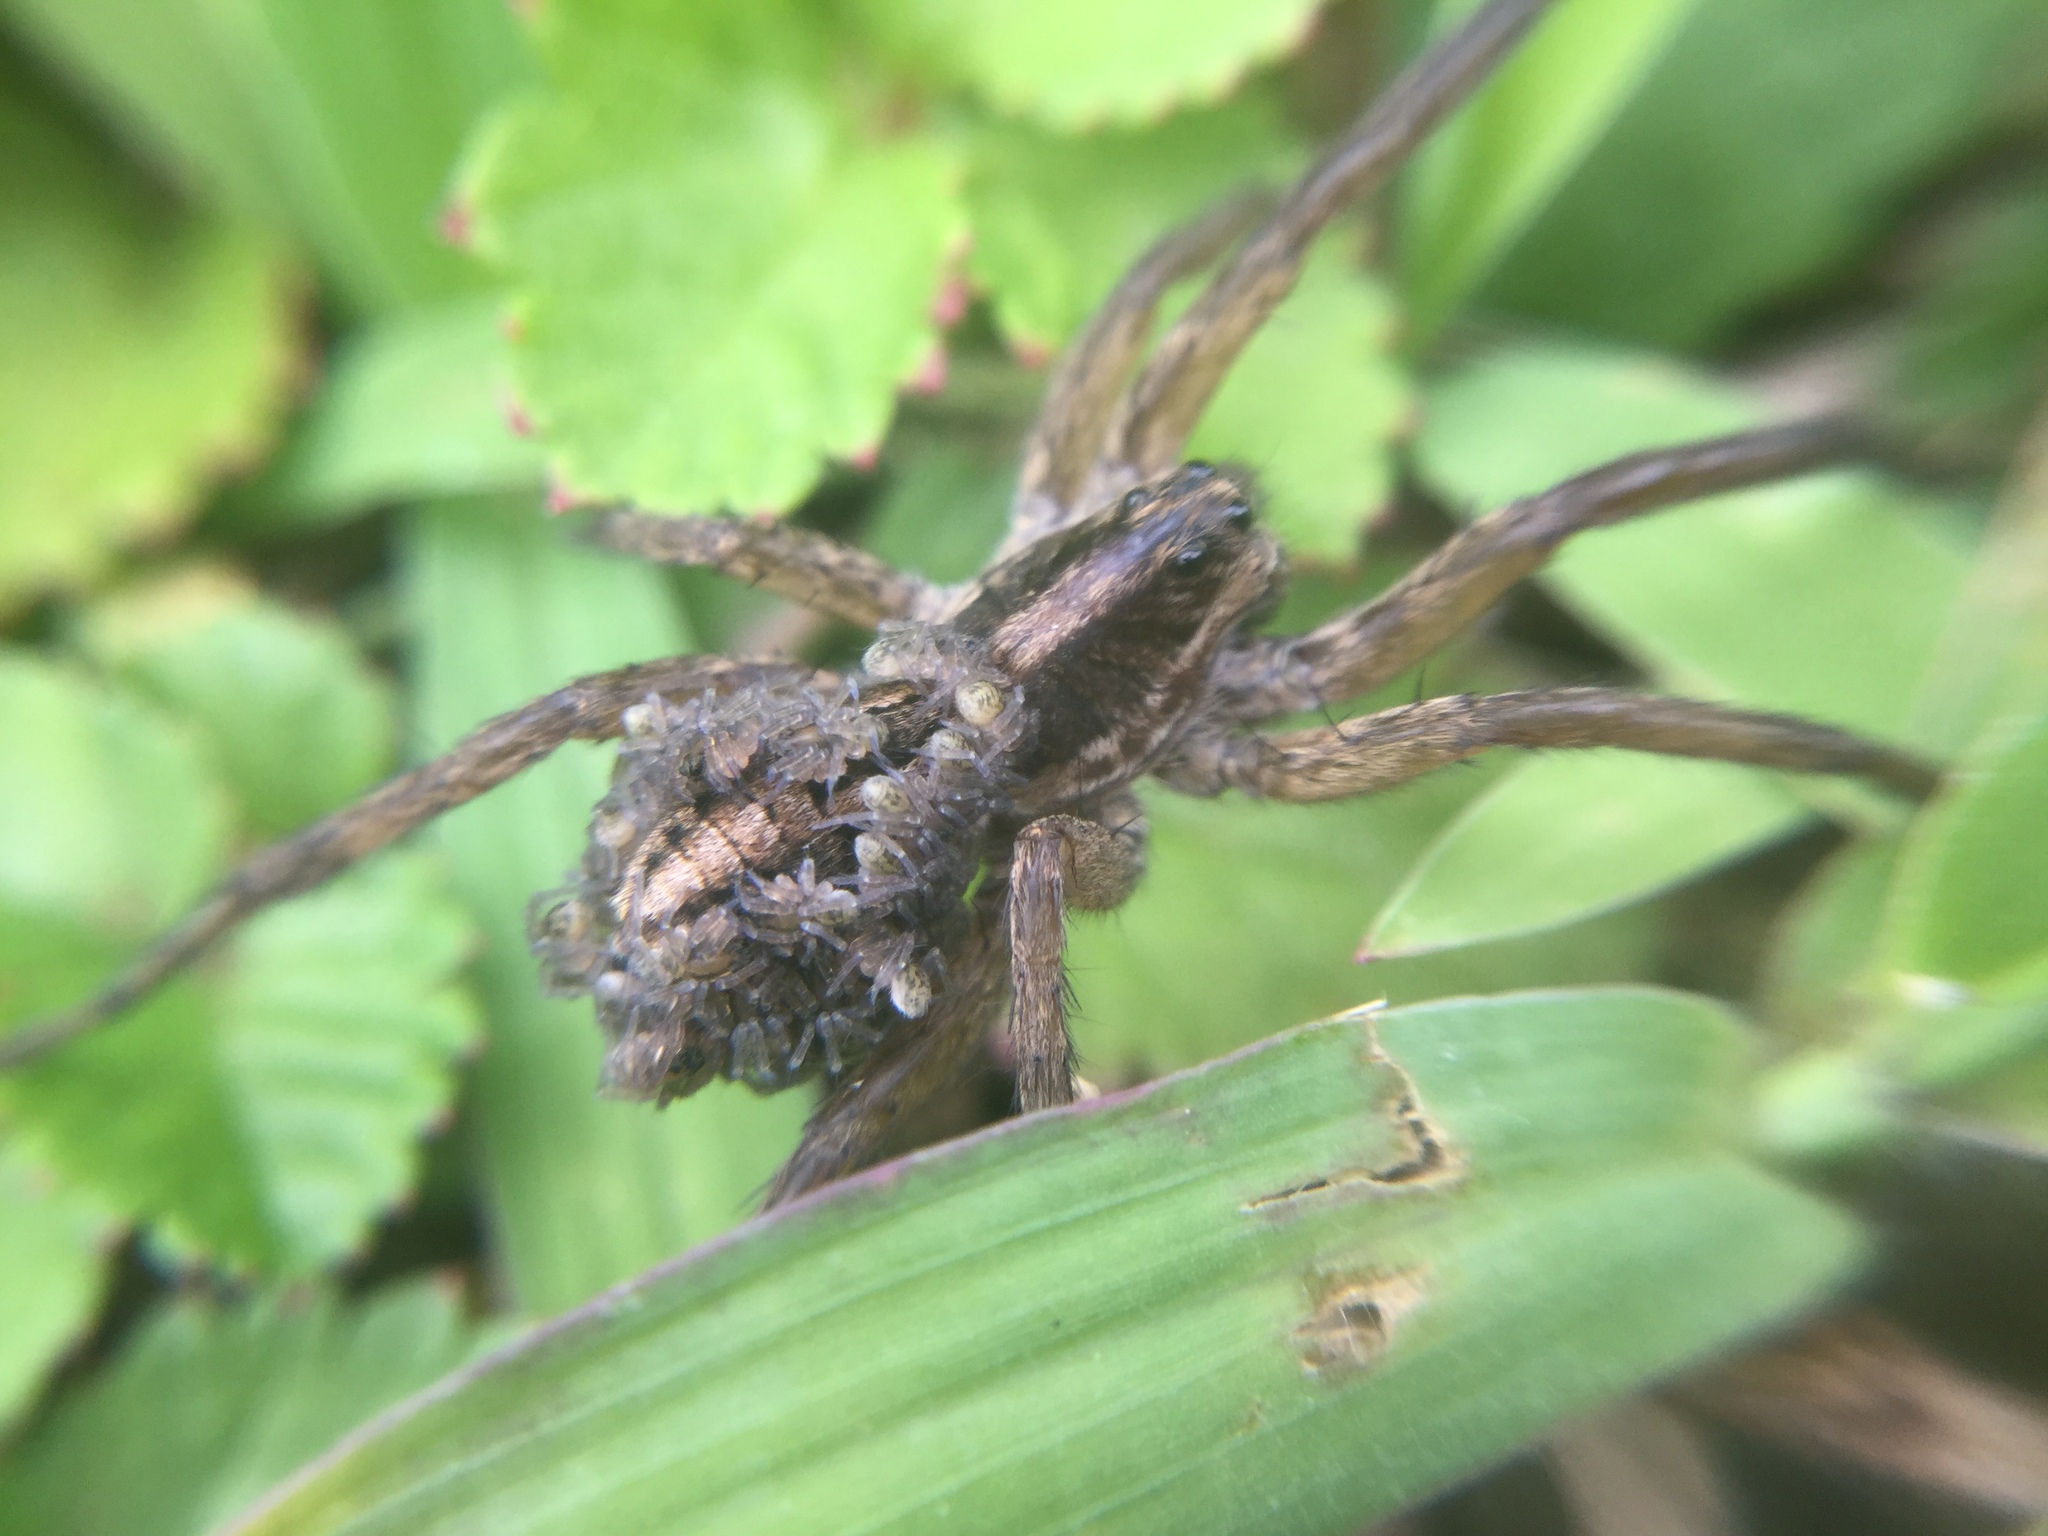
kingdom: Animalia
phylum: Arthropoda
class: Arachnida
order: Araneae
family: Lycosidae
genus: Schizocosa
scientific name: Schizocosa avida
